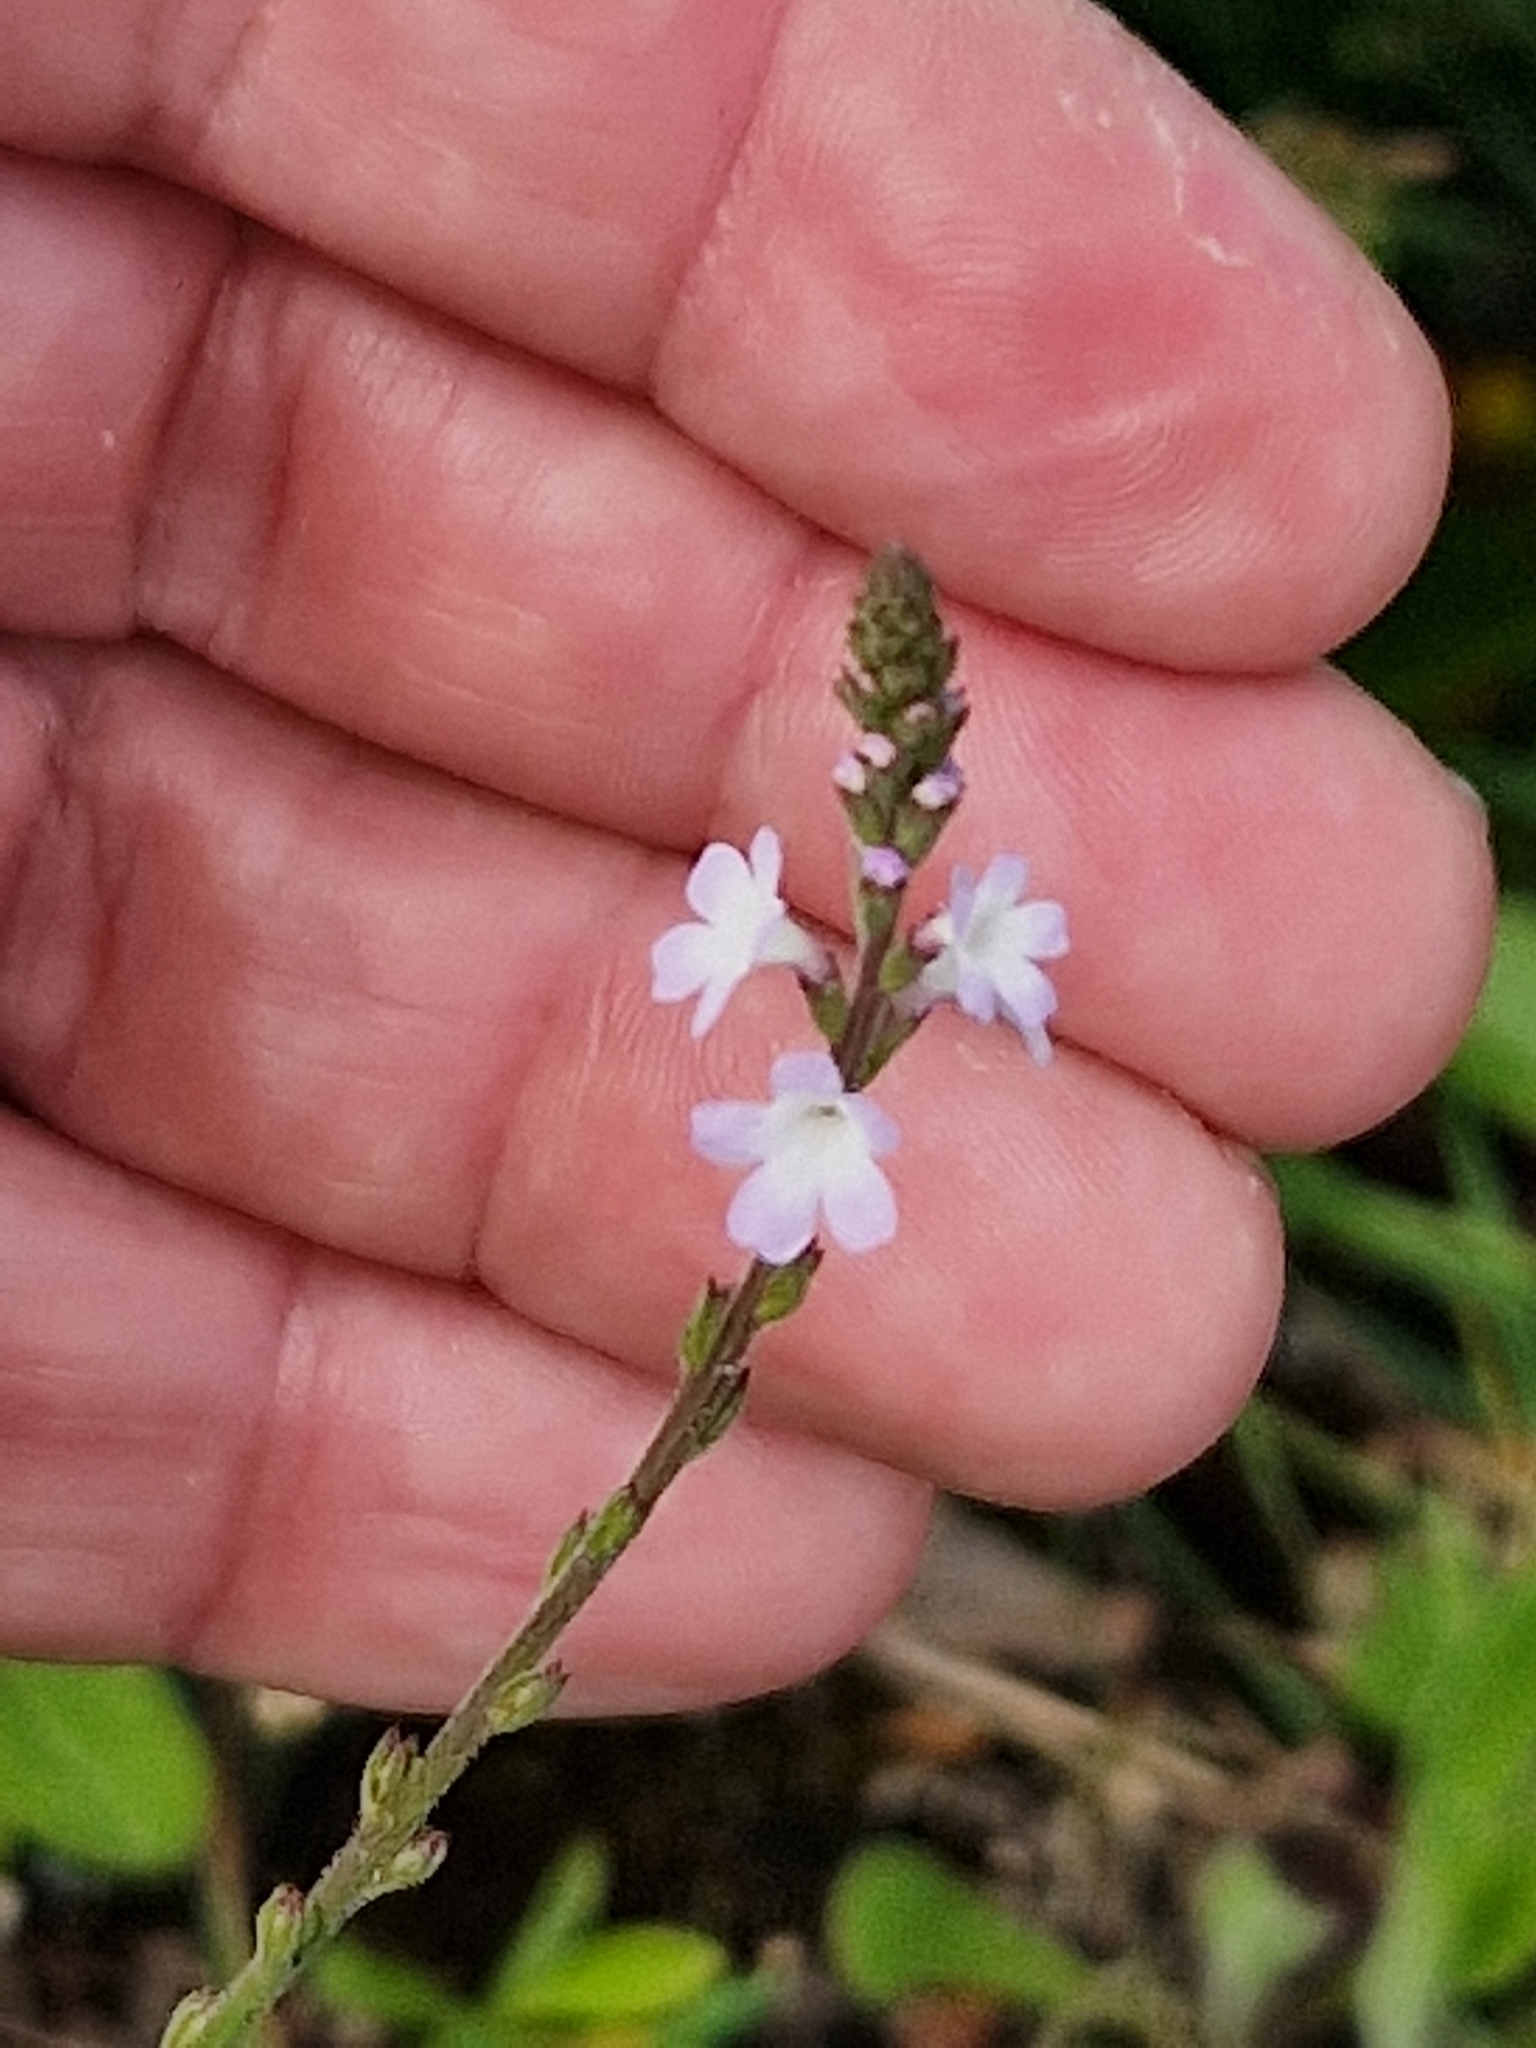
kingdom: Plantae
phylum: Tracheophyta
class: Magnoliopsida
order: Lamiales
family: Verbenaceae
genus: Verbena
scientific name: Verbena officinalis
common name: Vervain
